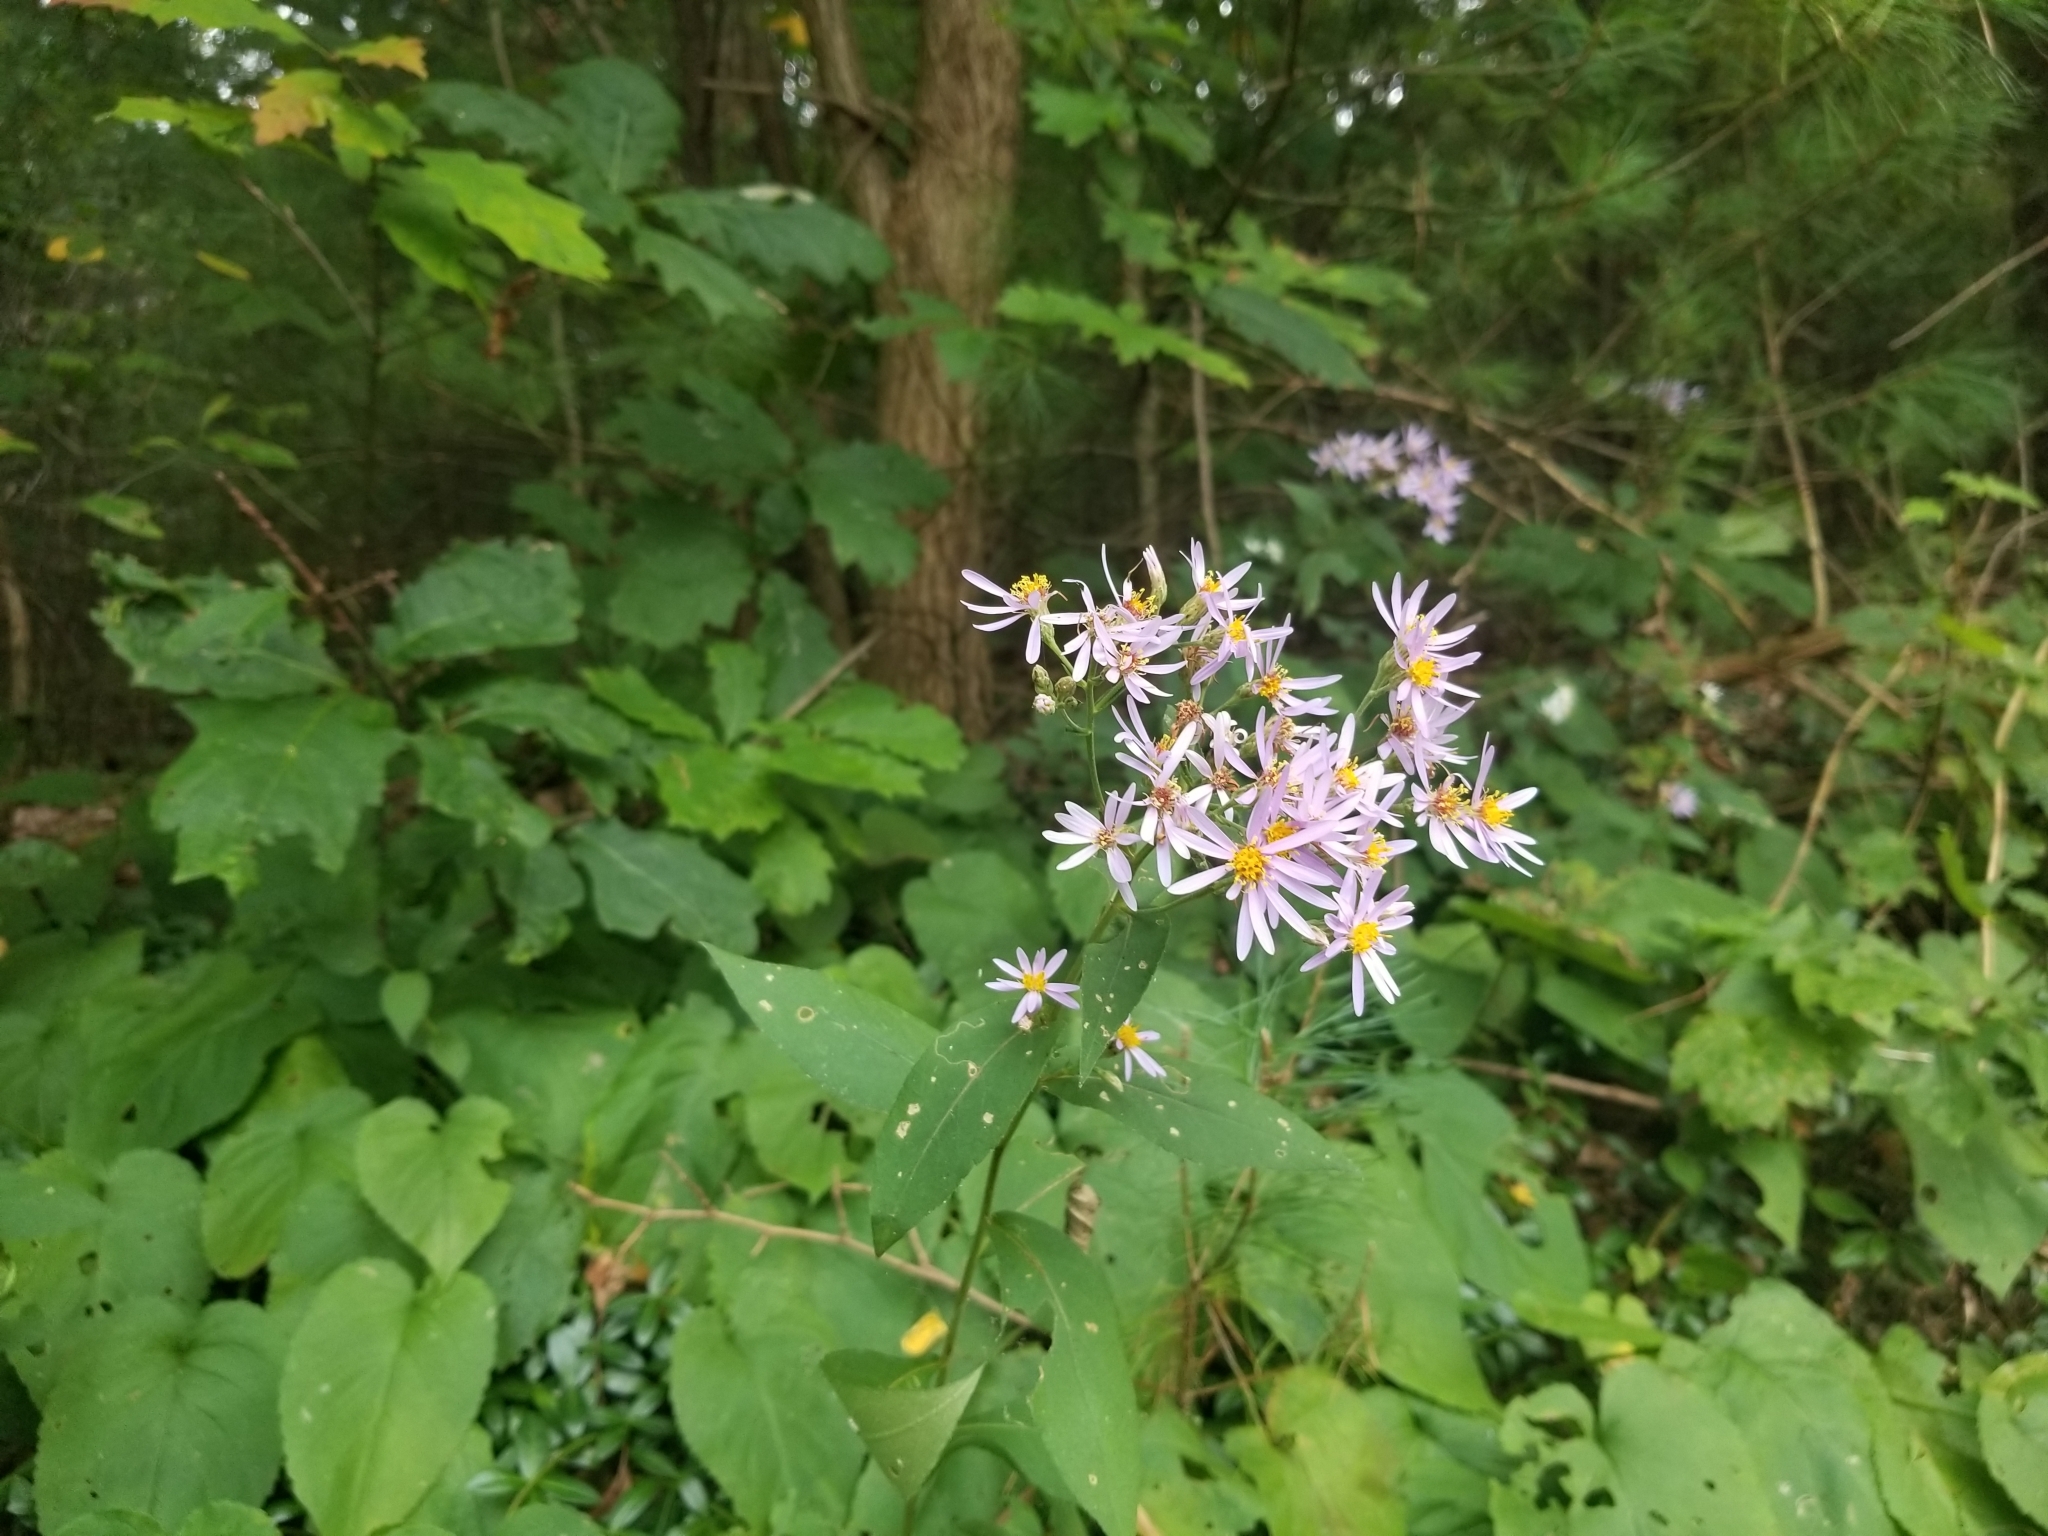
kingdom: Plantae
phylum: Tracheophyta
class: Magnoliopsida
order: Asterales
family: Asteraceae
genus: Eurybia
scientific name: Eurybia macrophylla
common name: Big-leaved aster
